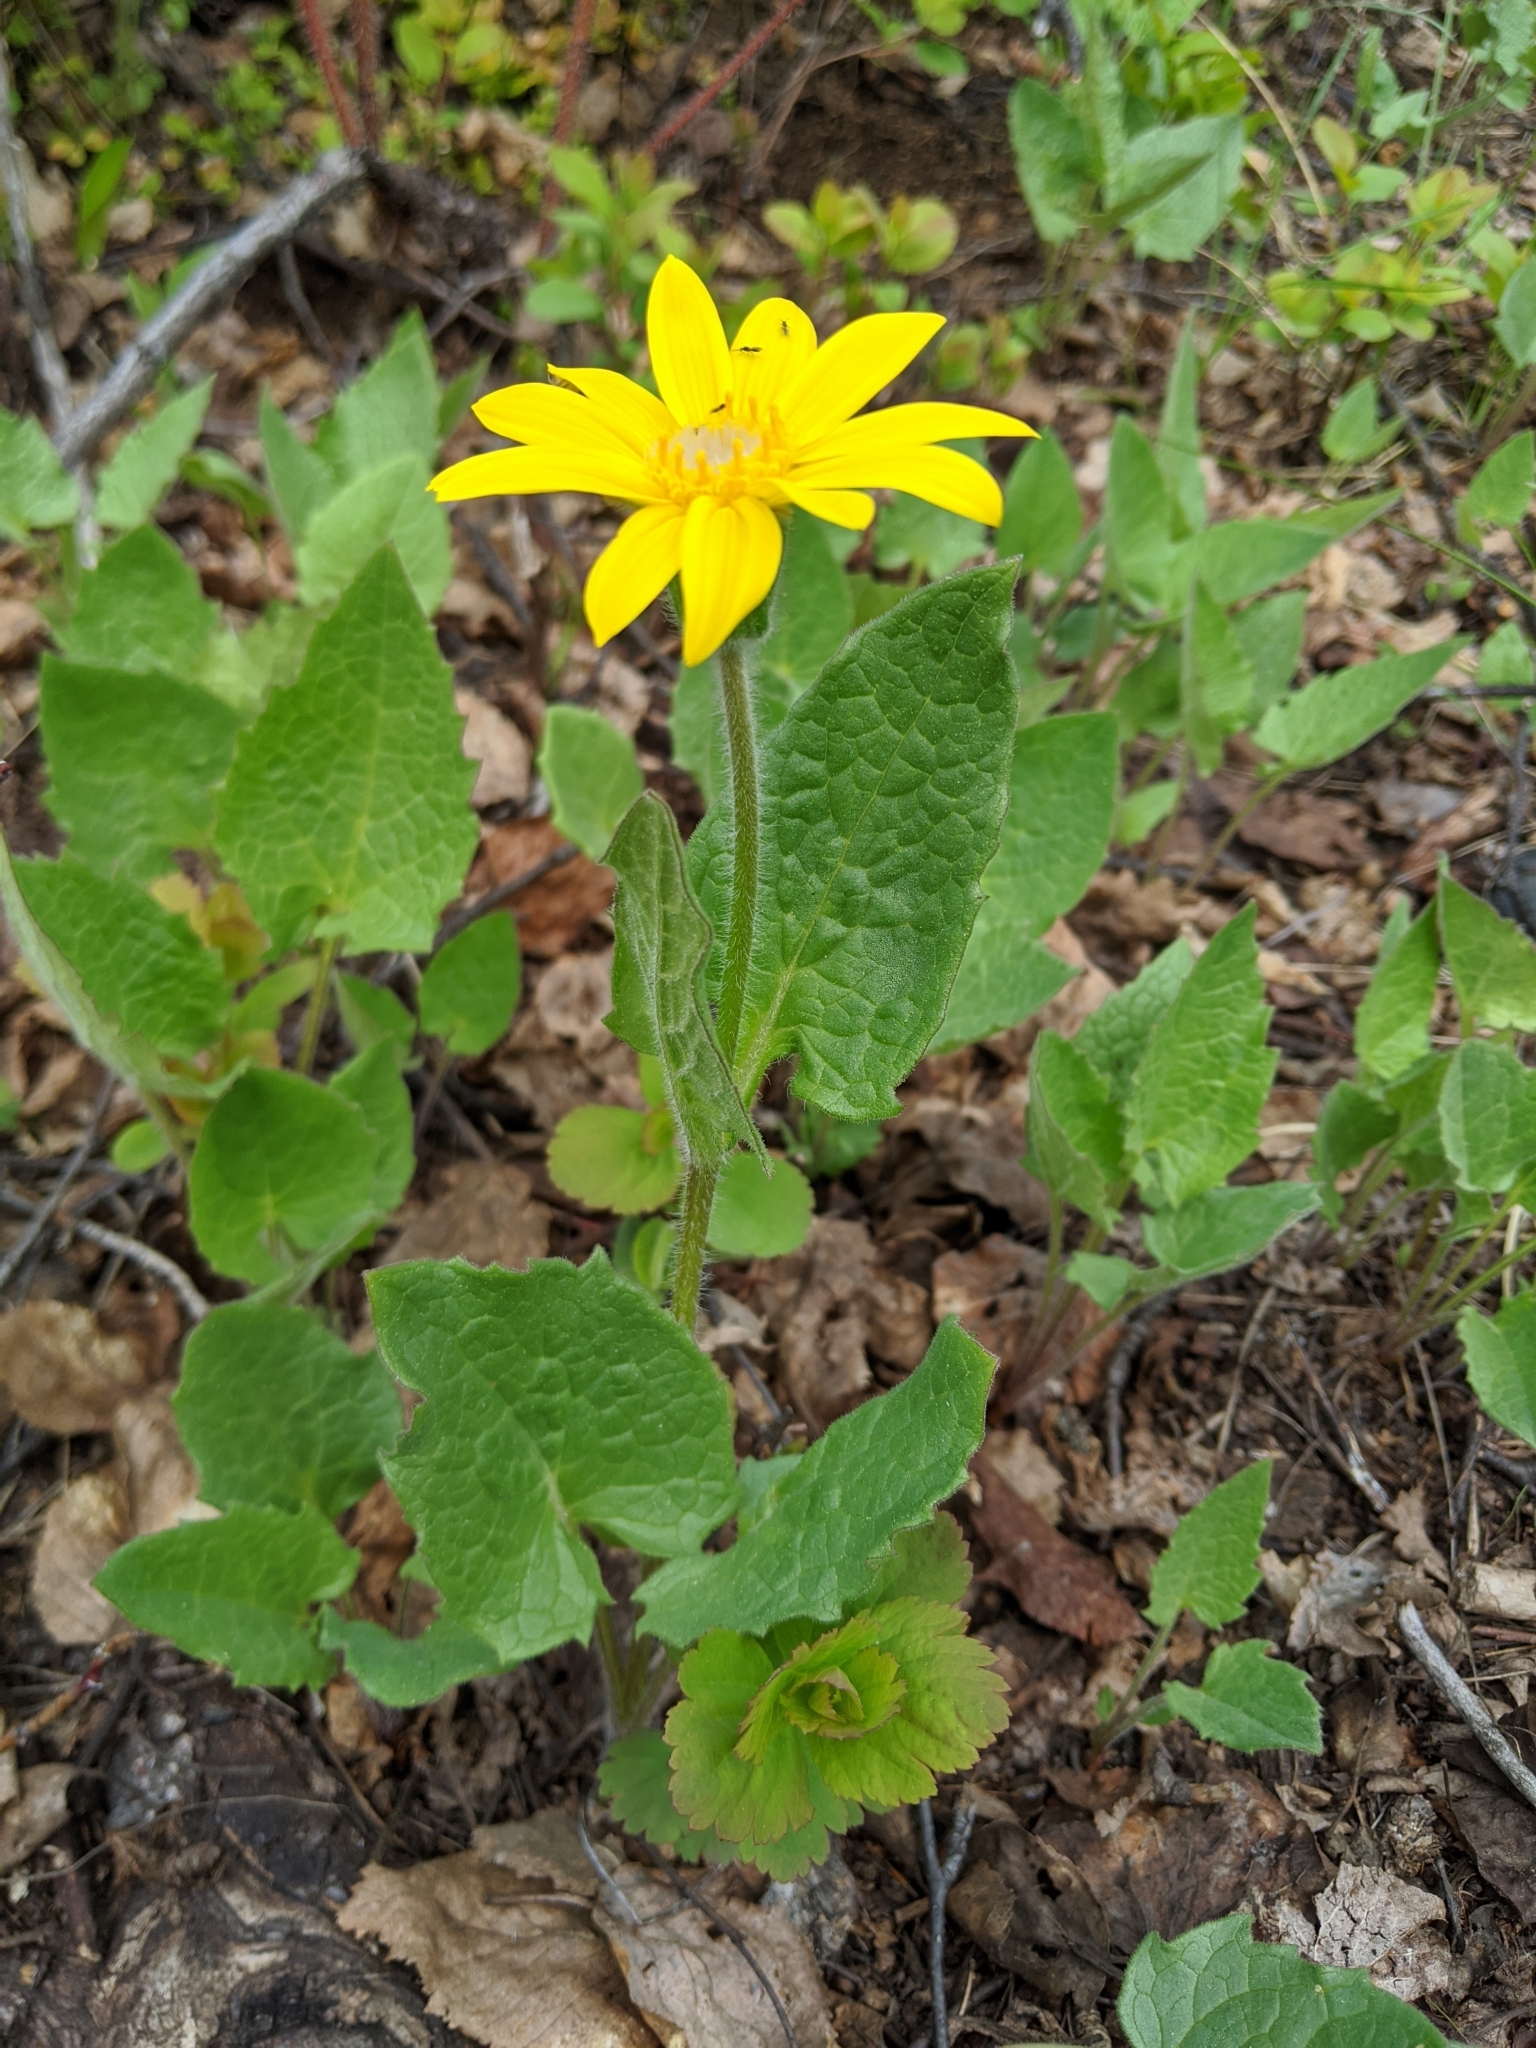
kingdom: Plantae
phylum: Tracheophyta
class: Magnoliopsida
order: Asterales
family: Asteraceae
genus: Arnica
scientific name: Arnica cordifolia
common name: Heart-leaf arnica
